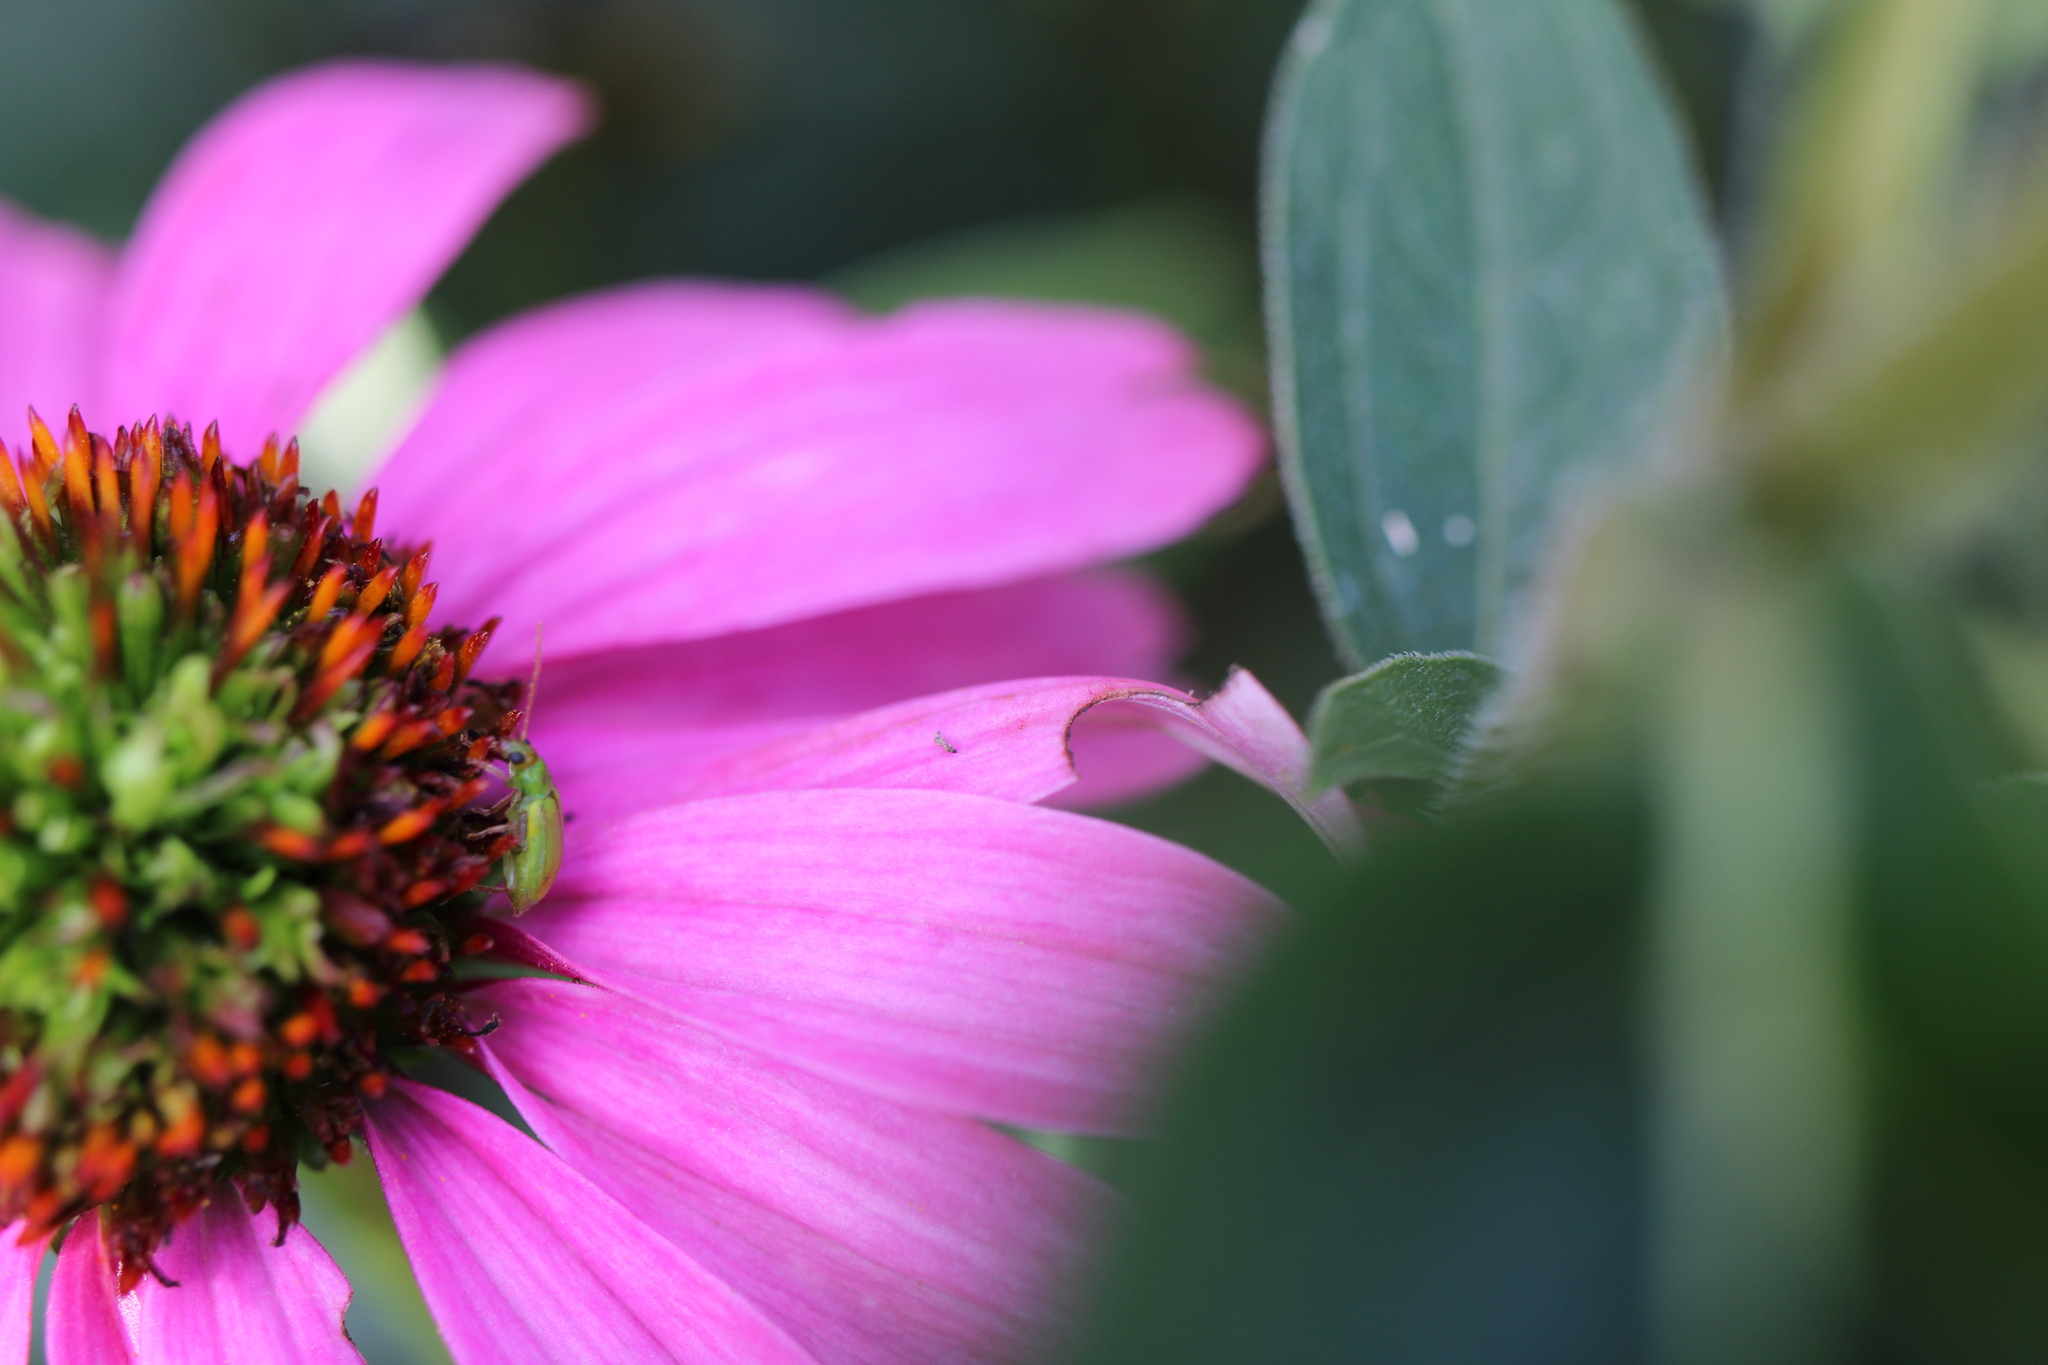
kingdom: Animalia
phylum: Arthropoda
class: Insecta
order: Coleoptera
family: Chrysomelidae
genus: Diabrotica
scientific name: Diabrotica barberi
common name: Northern corn rootworm
